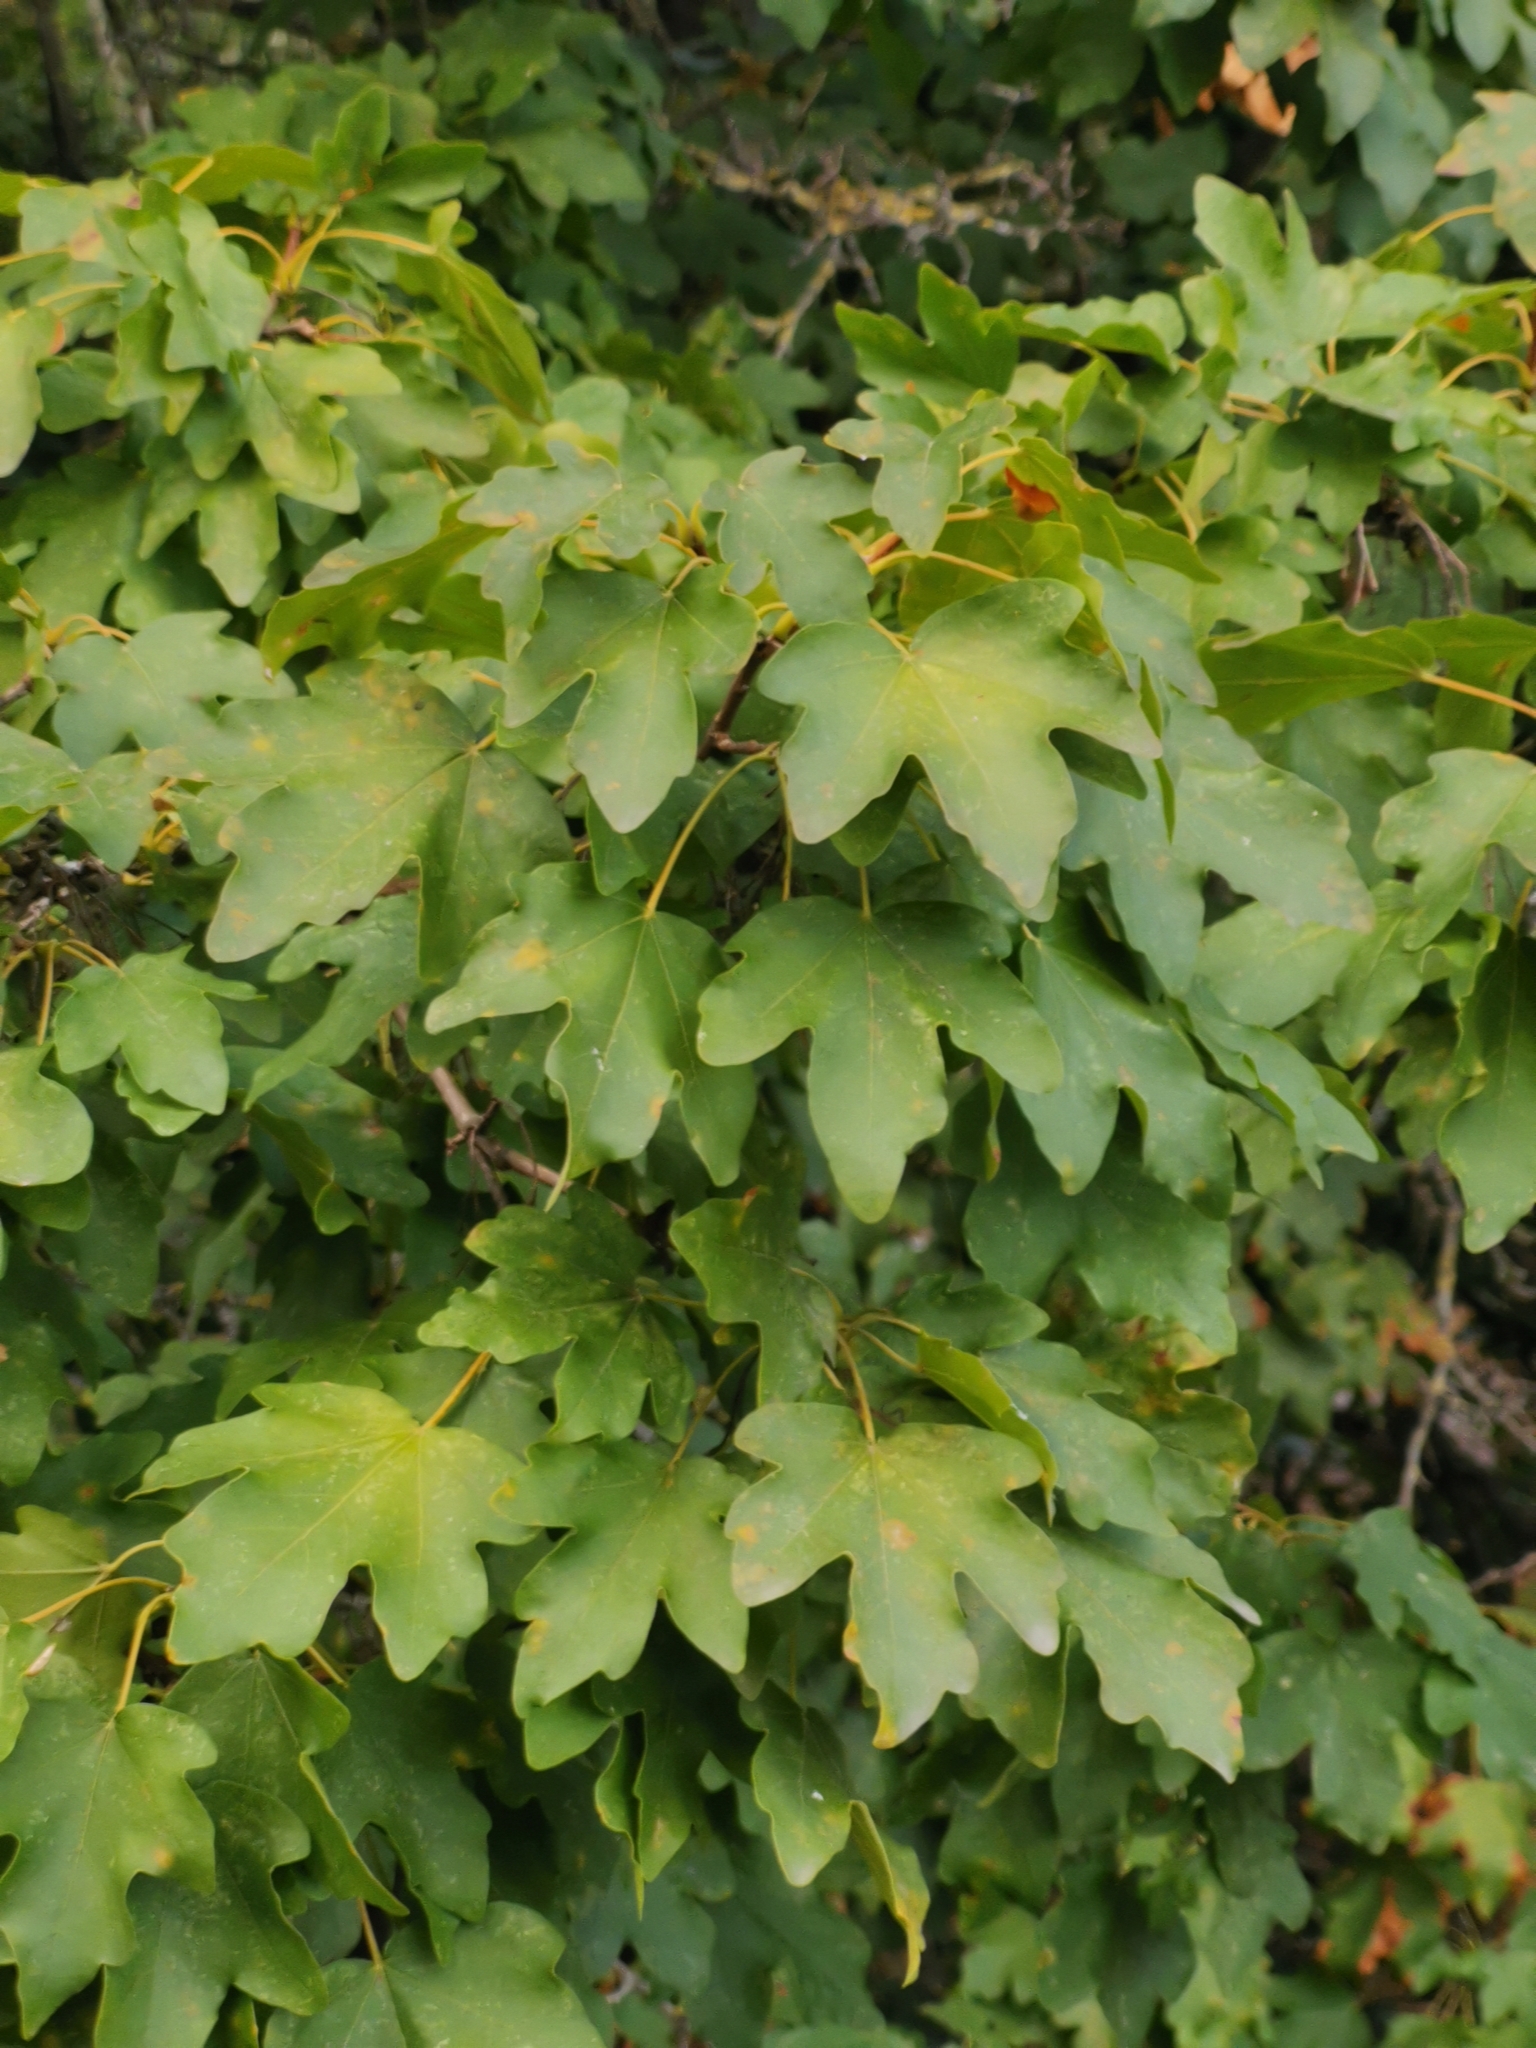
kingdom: Plantae
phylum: Tracheophyta
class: Magnoliopsida
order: Sapindales
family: Sapindaceae
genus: Acer
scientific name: Acer campestre
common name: Field maple
